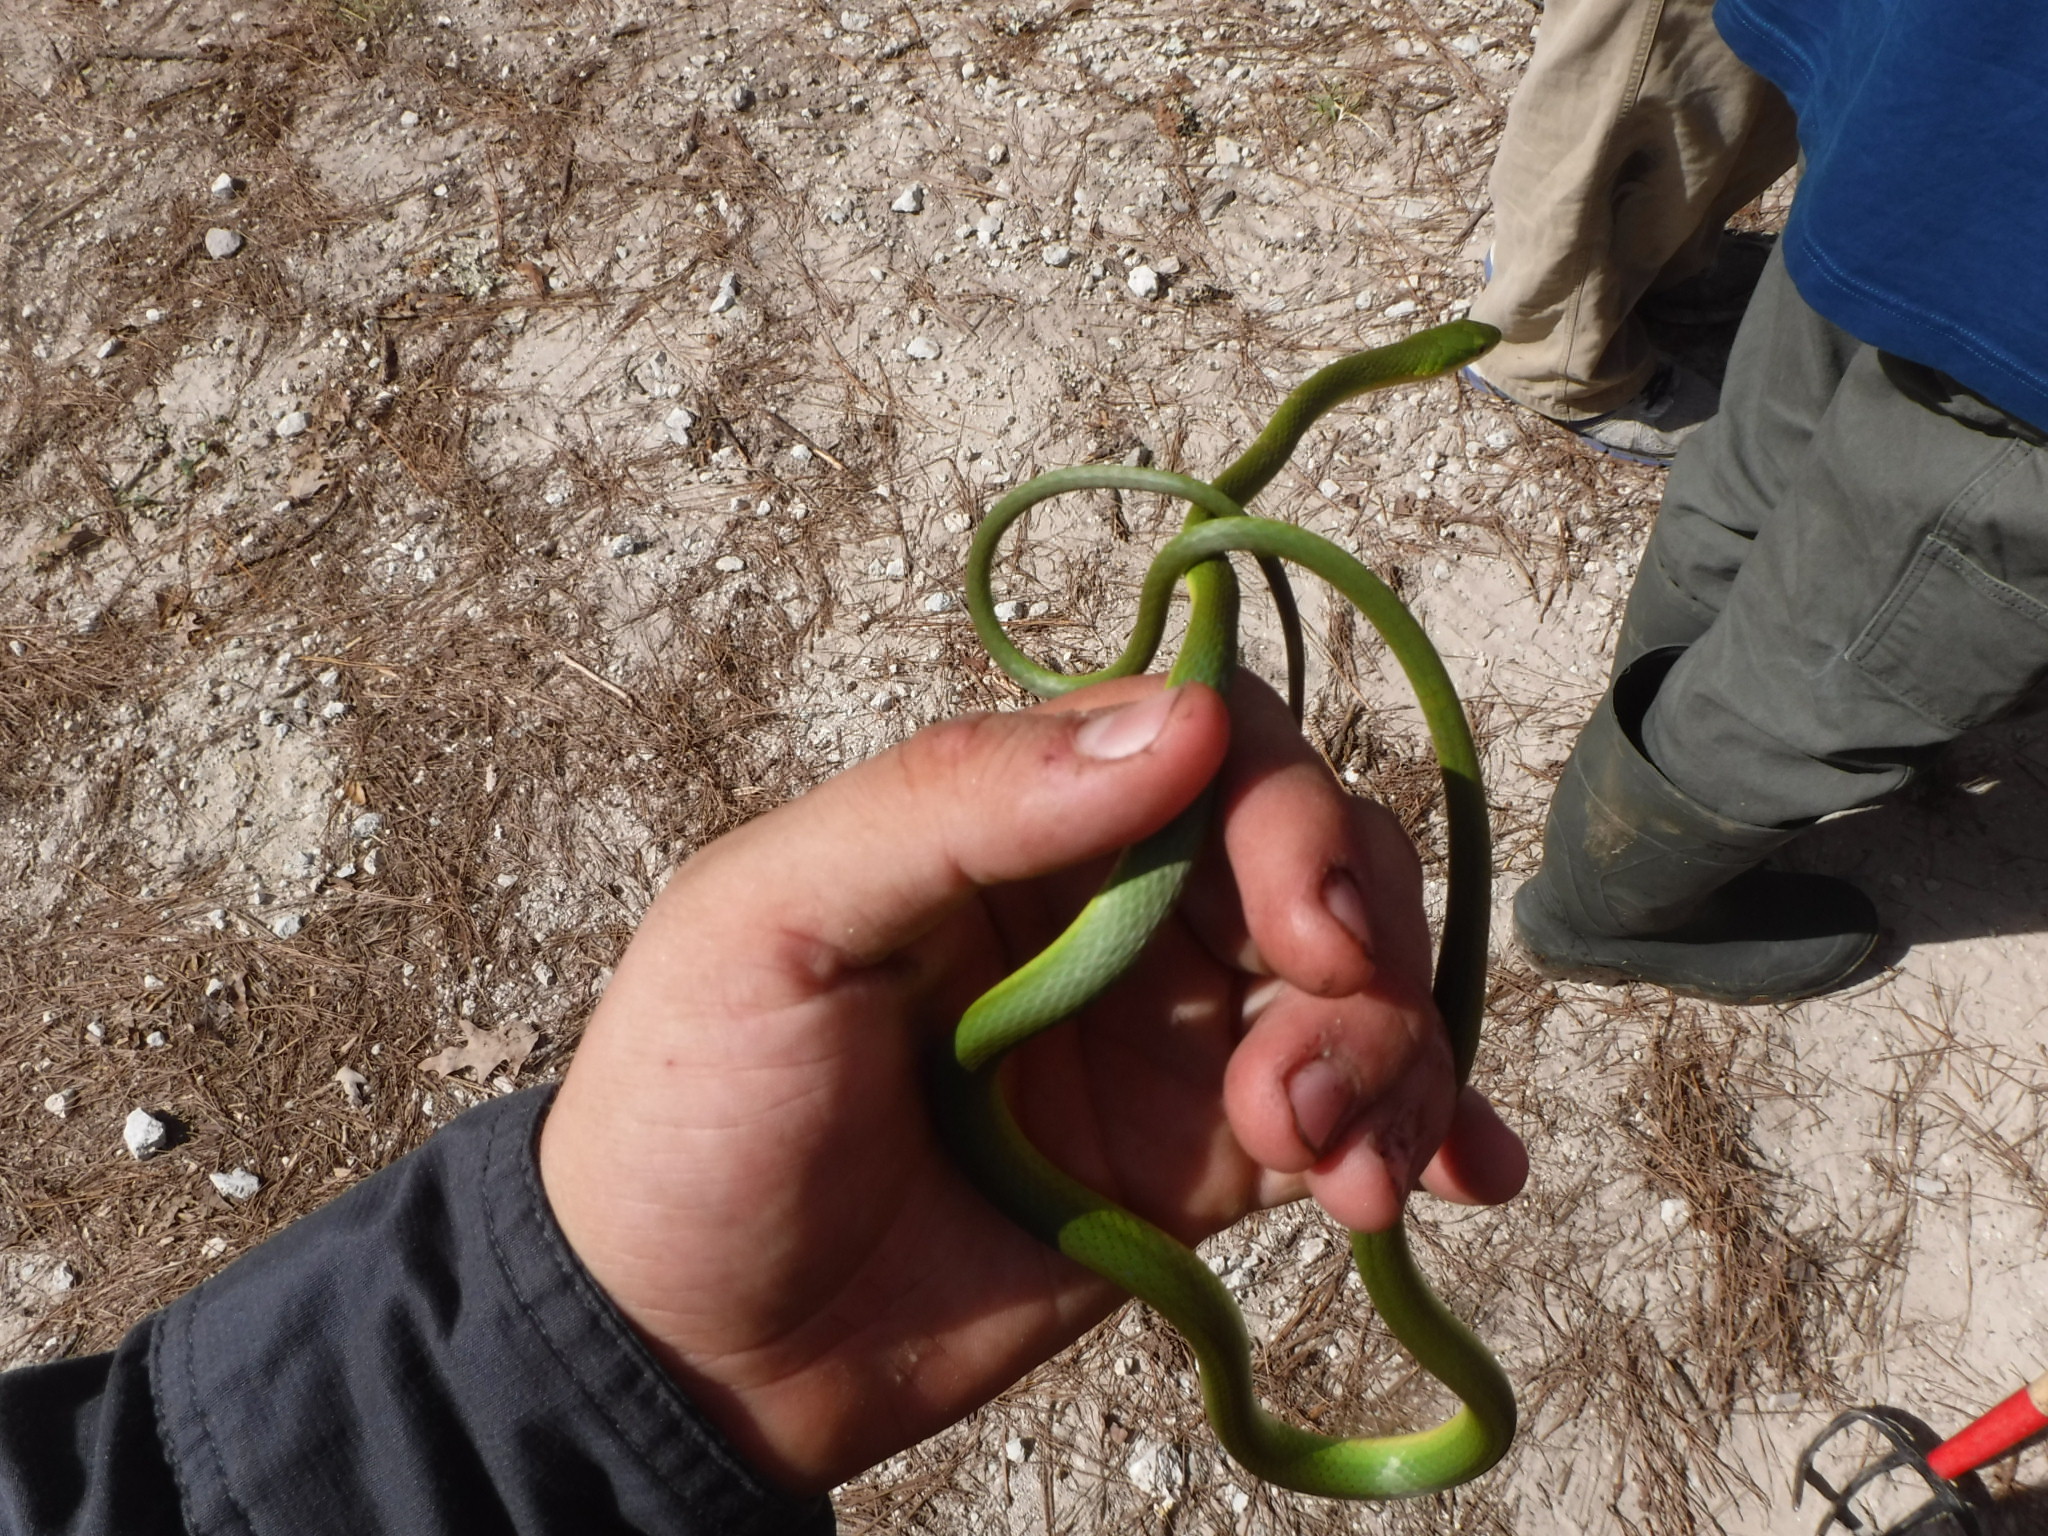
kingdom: Animalia
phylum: Chordata
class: Squamata
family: Colubridae
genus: Opheodrys
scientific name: Opheodrys aestivus
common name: Rough greensnake
